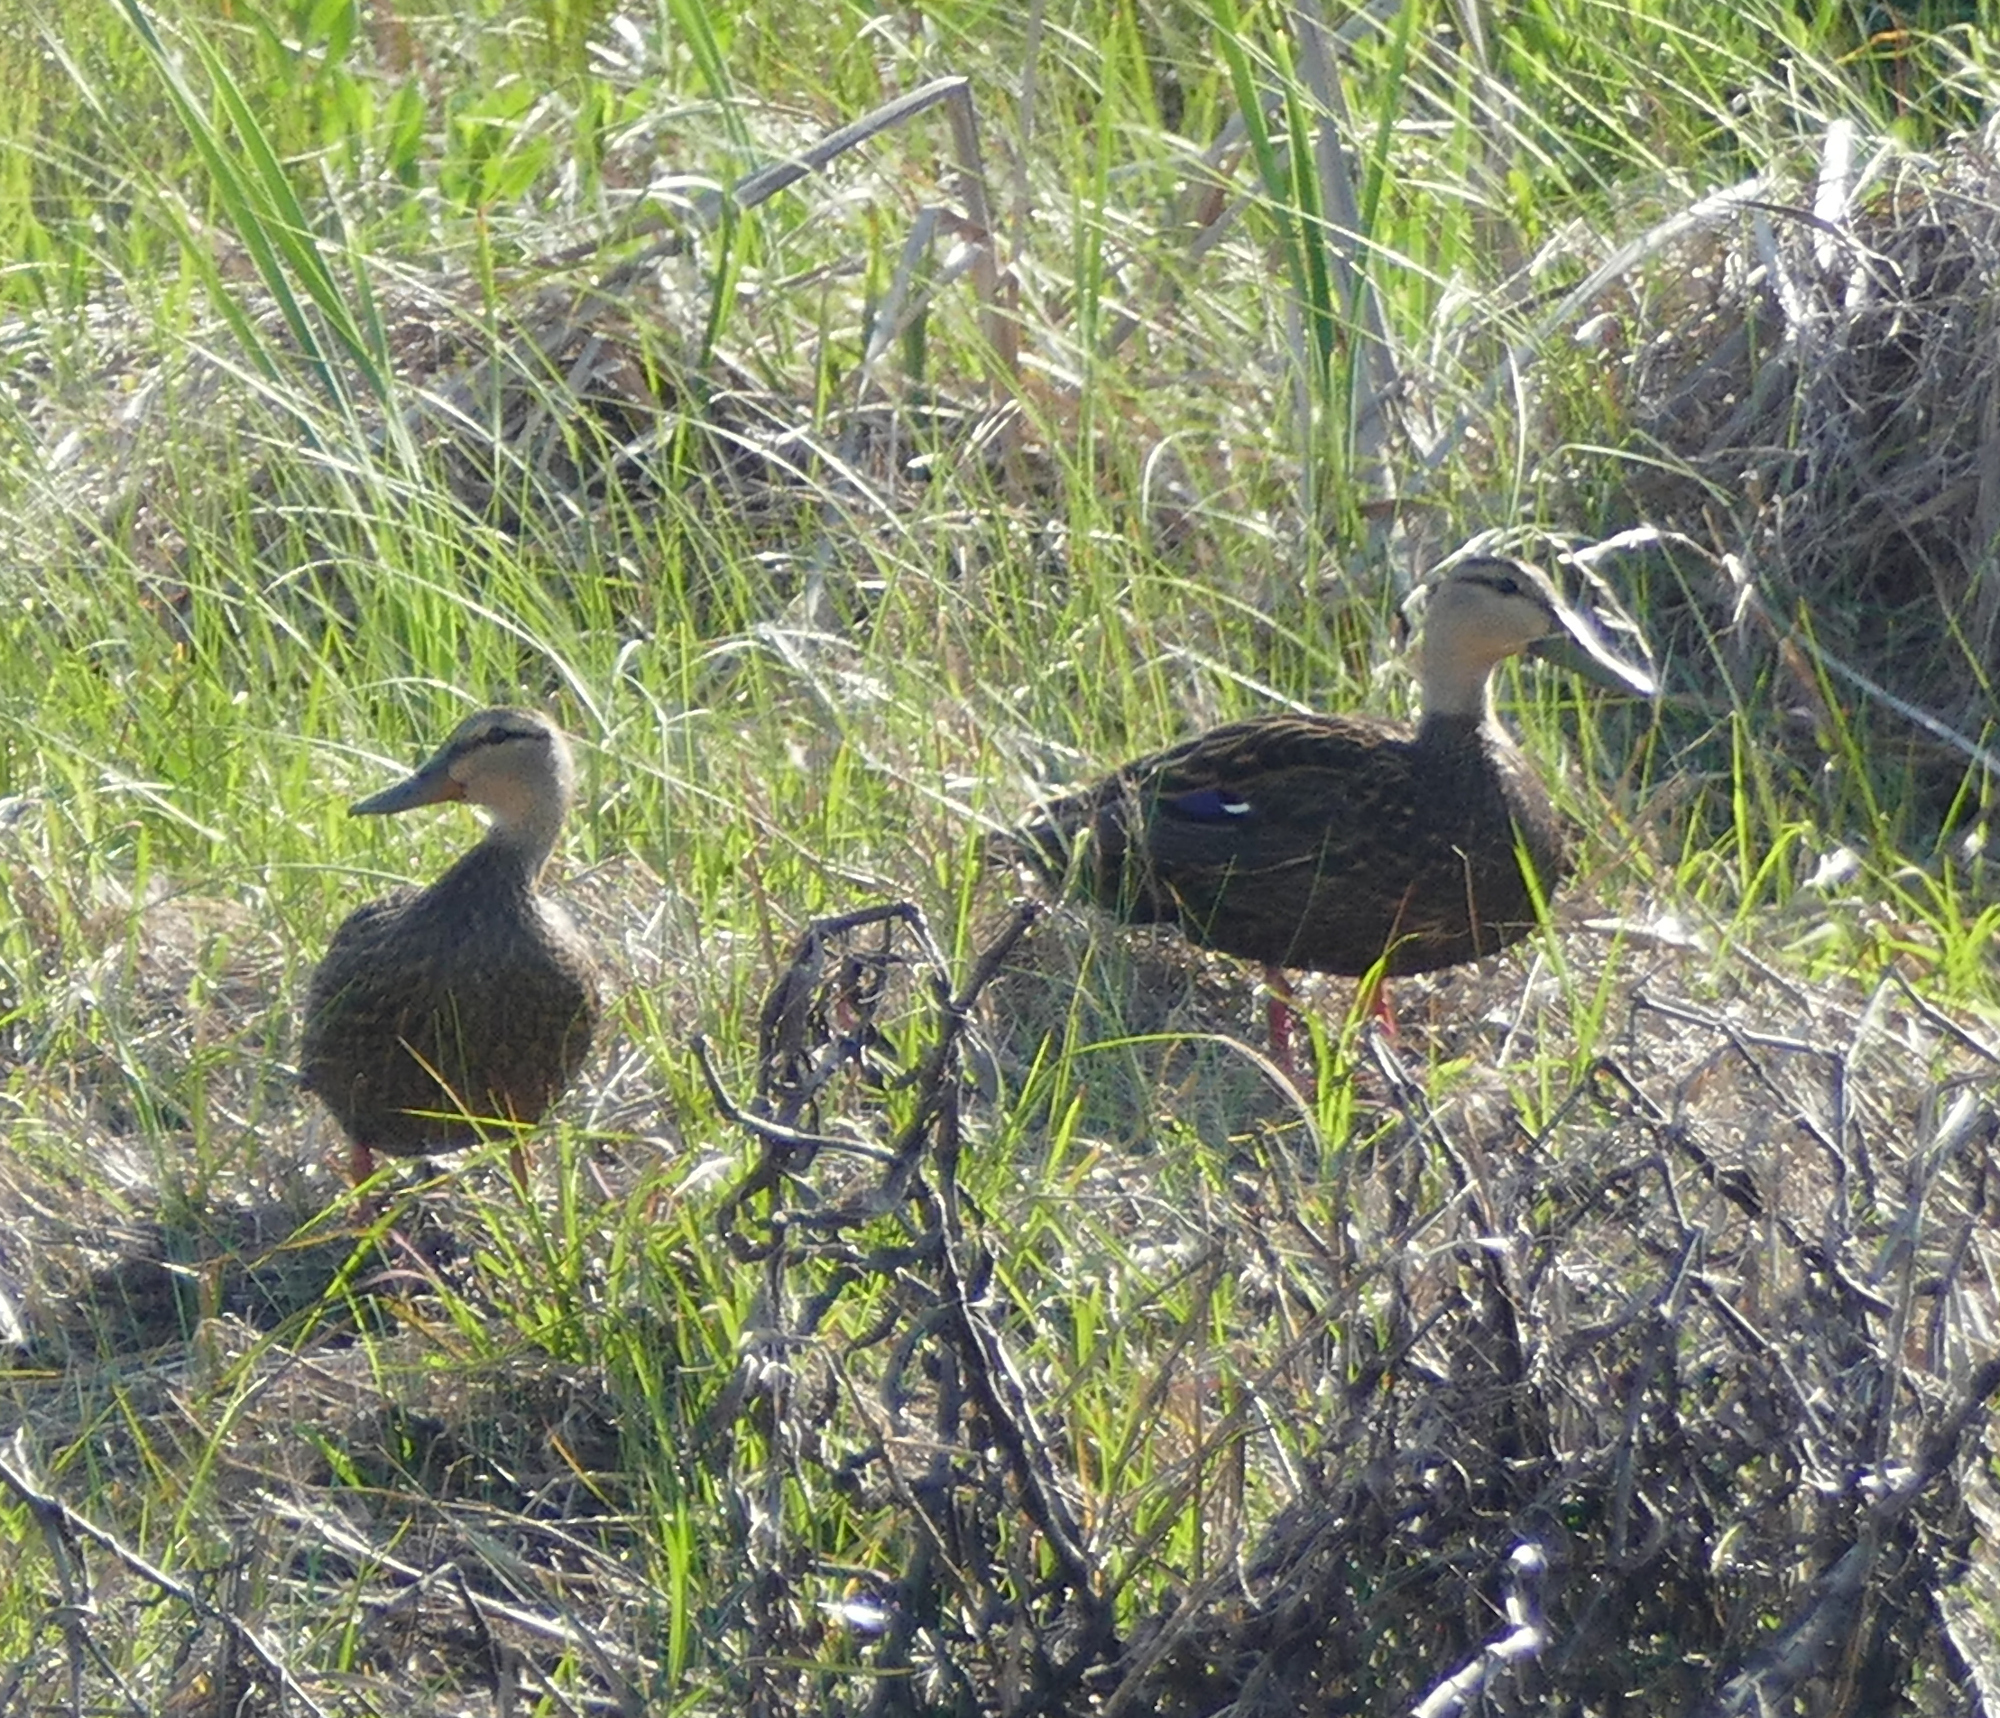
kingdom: Animalia
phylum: Chordata
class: Aves
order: Anseriformes
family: Anatidae
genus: Anas
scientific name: Anas fulvigula
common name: Mottled duck
